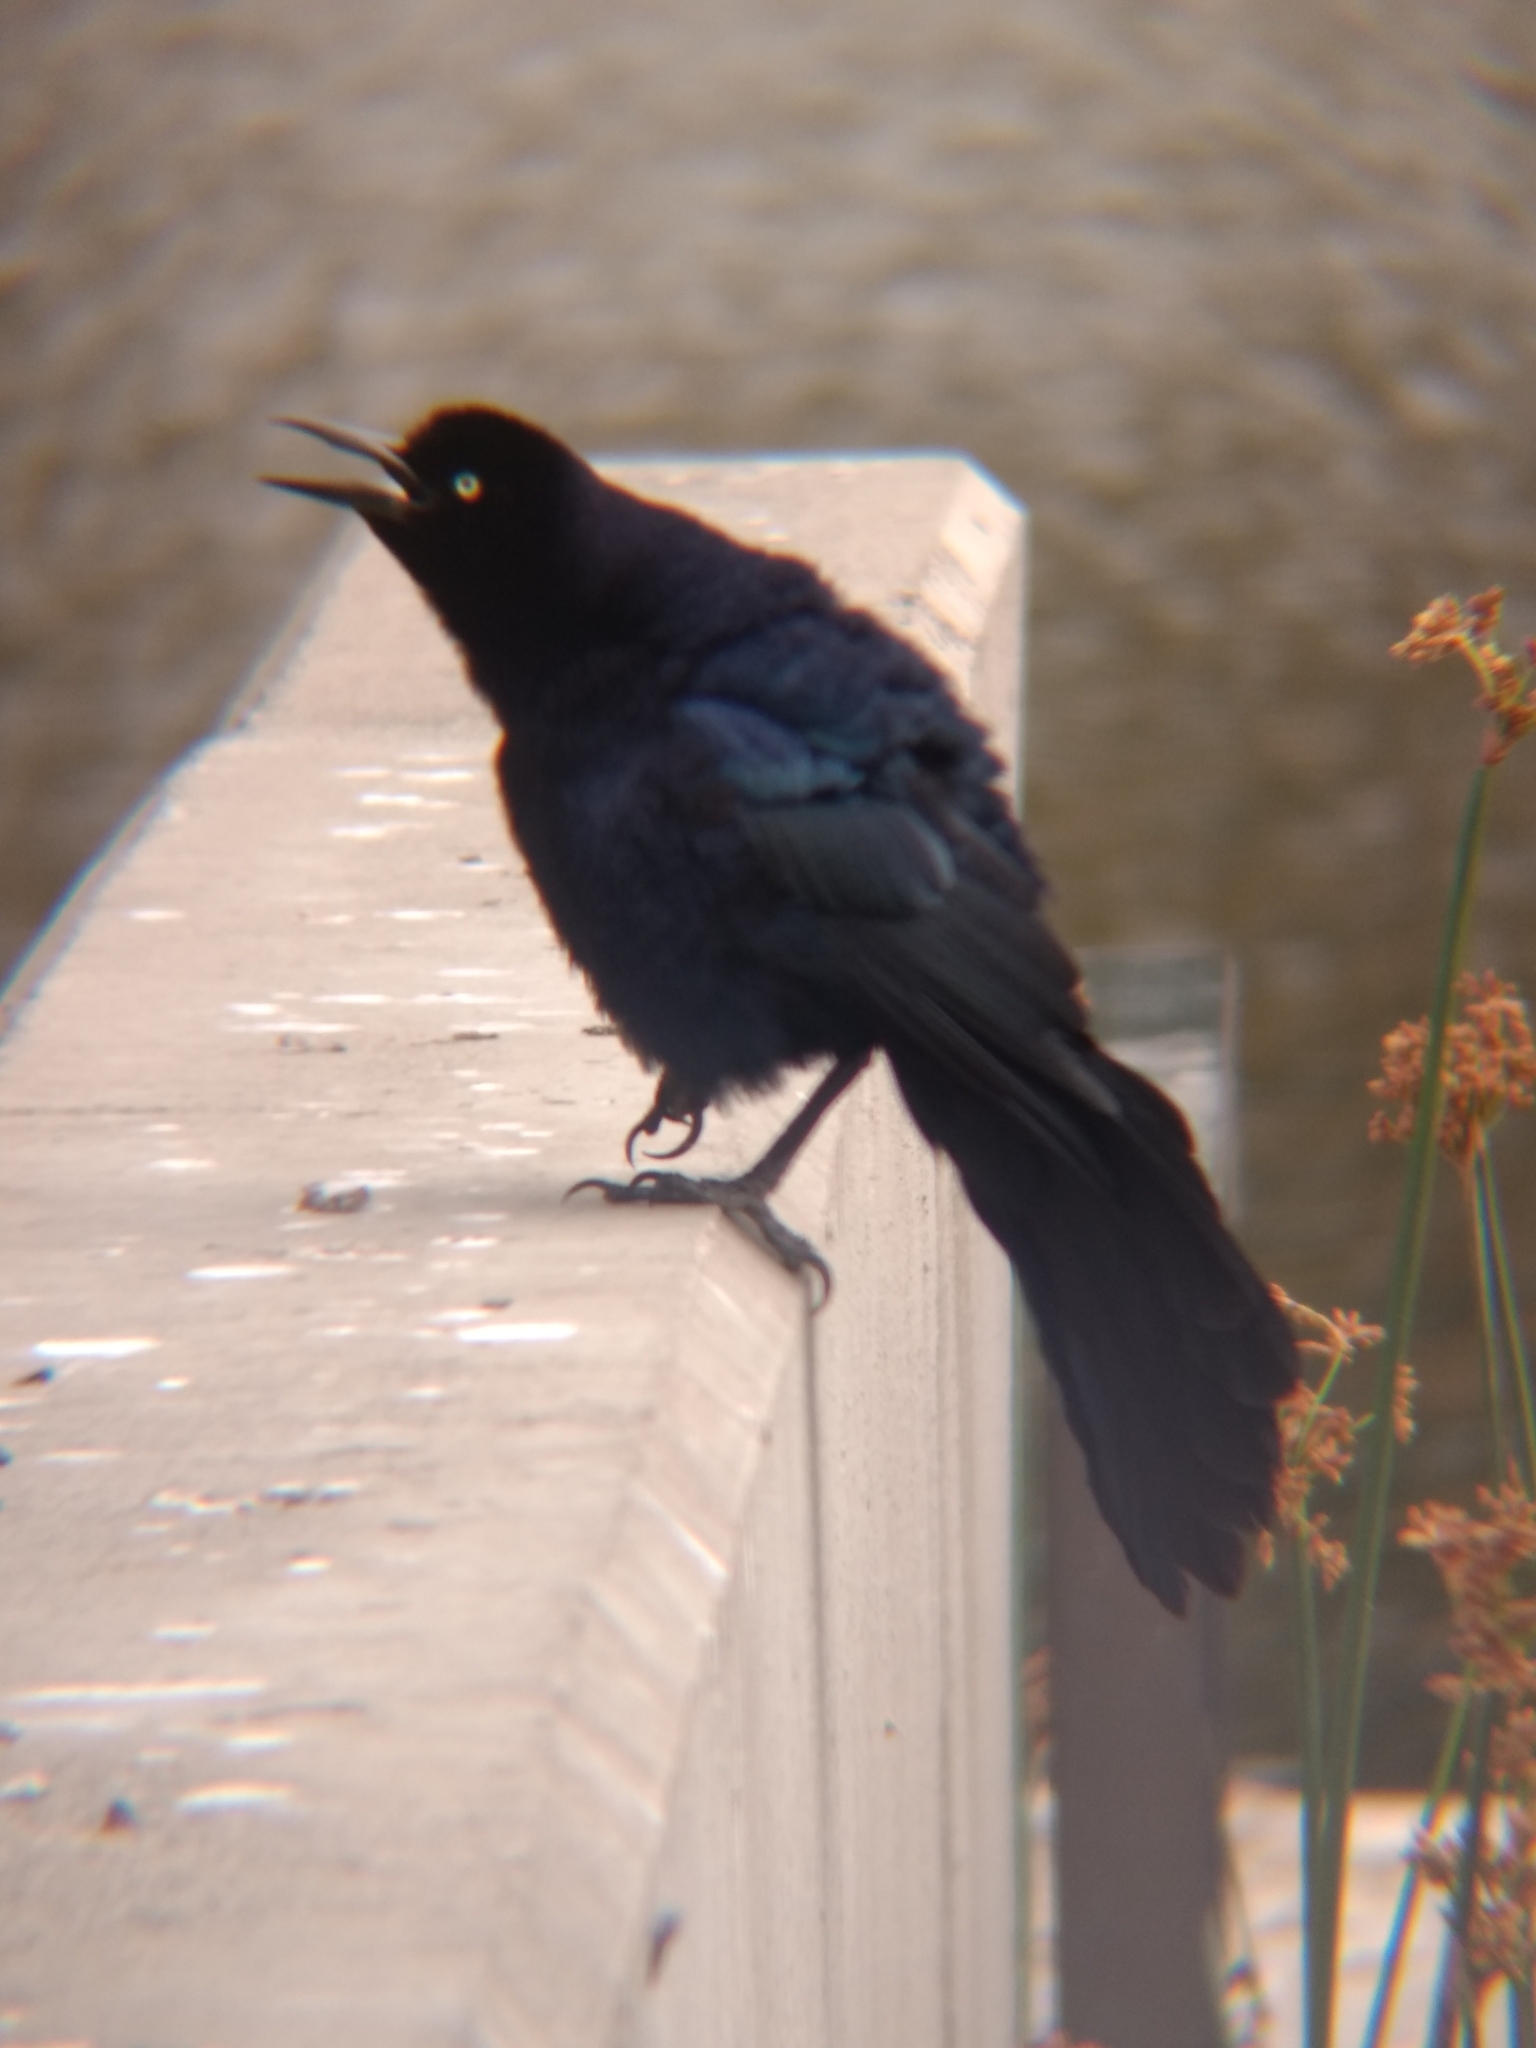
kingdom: Animalia
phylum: Chordata
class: Aves
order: Passeriformes
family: Icteridae
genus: Quiscalus
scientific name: Quiscalus mexicanus
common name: Great-tailed grackle
